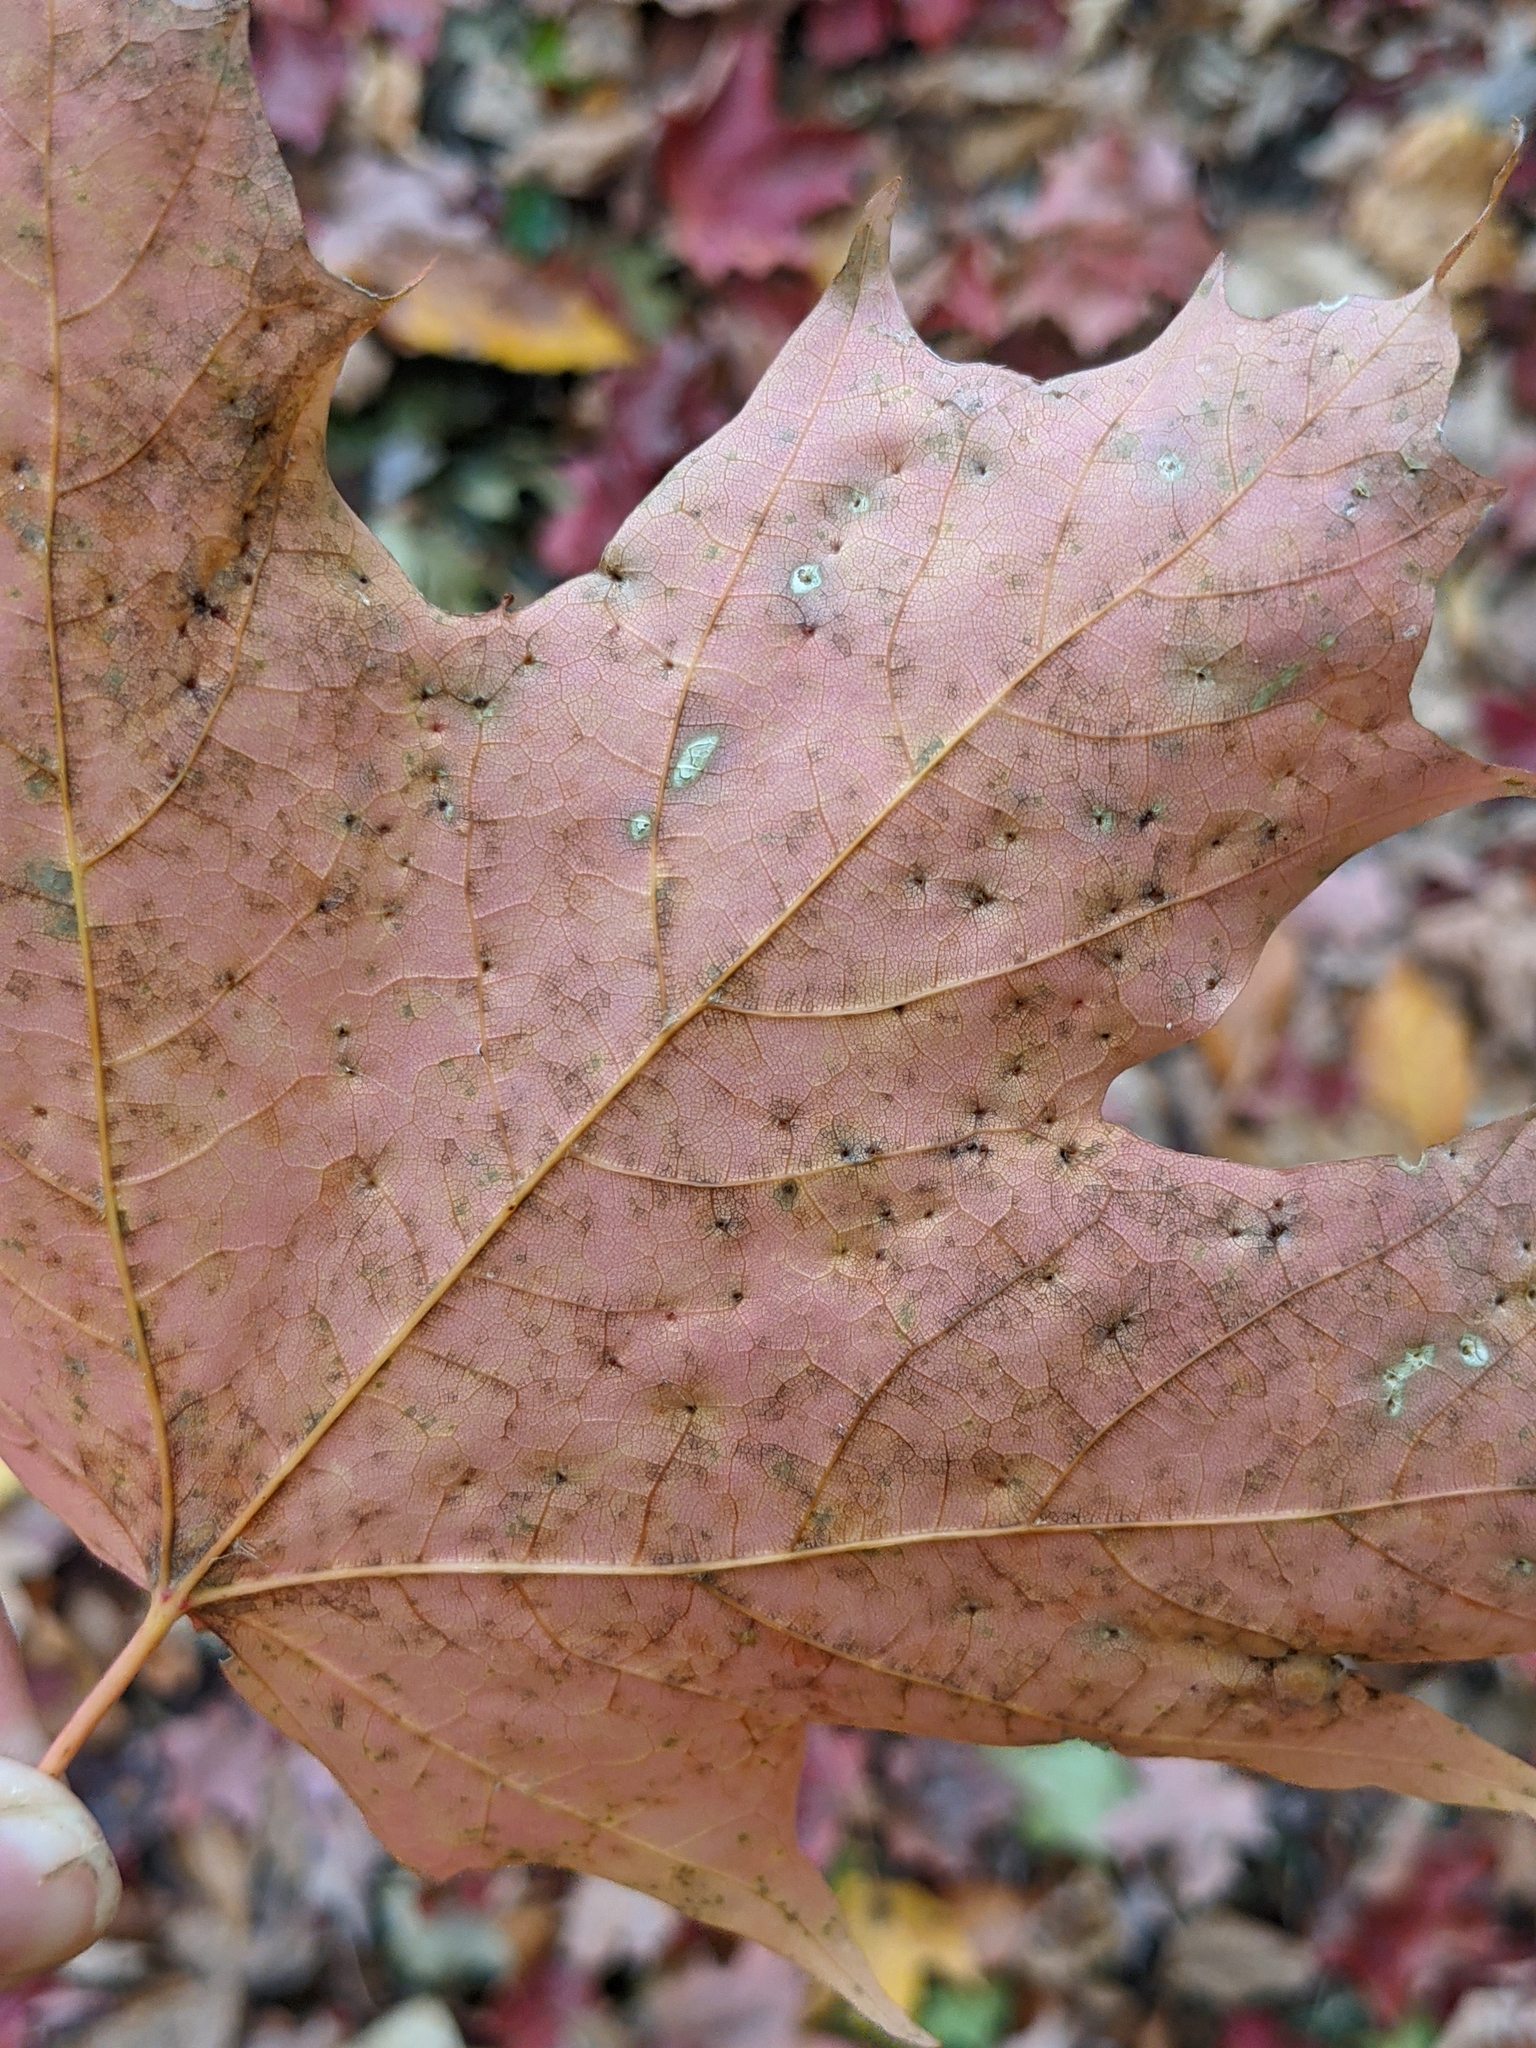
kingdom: Animalia
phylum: Arthropoda
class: Arachnida
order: Trombidiformes
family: Eriophyidae
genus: Vasates
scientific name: Vasates aceriscrumena
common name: Maple spindle gall mite
